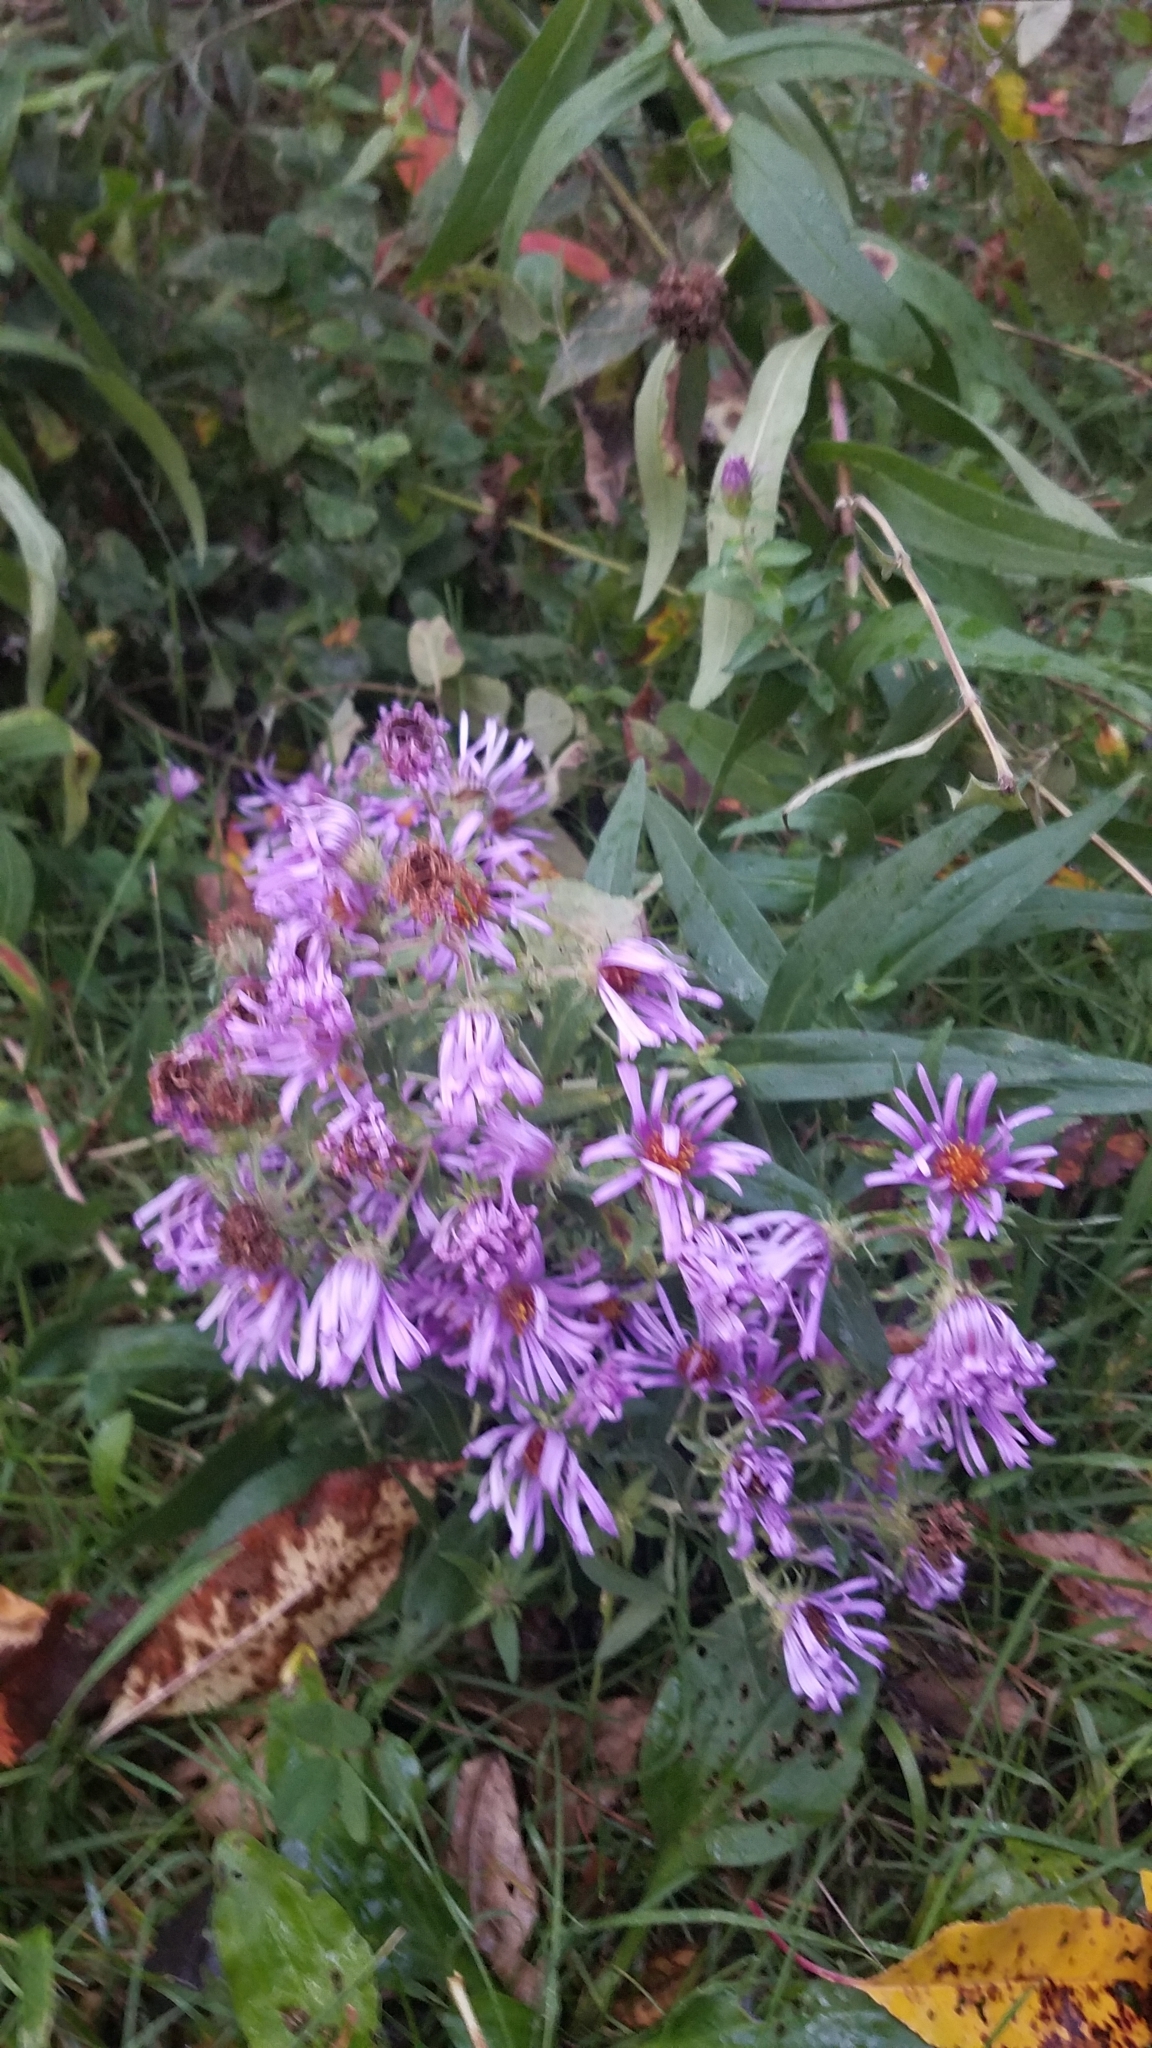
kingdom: Plantae
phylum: Tracheophyta
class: Magnoliopsida
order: Asterales
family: Asteraceae
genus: Symphyotrichum
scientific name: Symphyotrichum novae-angliae
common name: Michaelmas daisy
